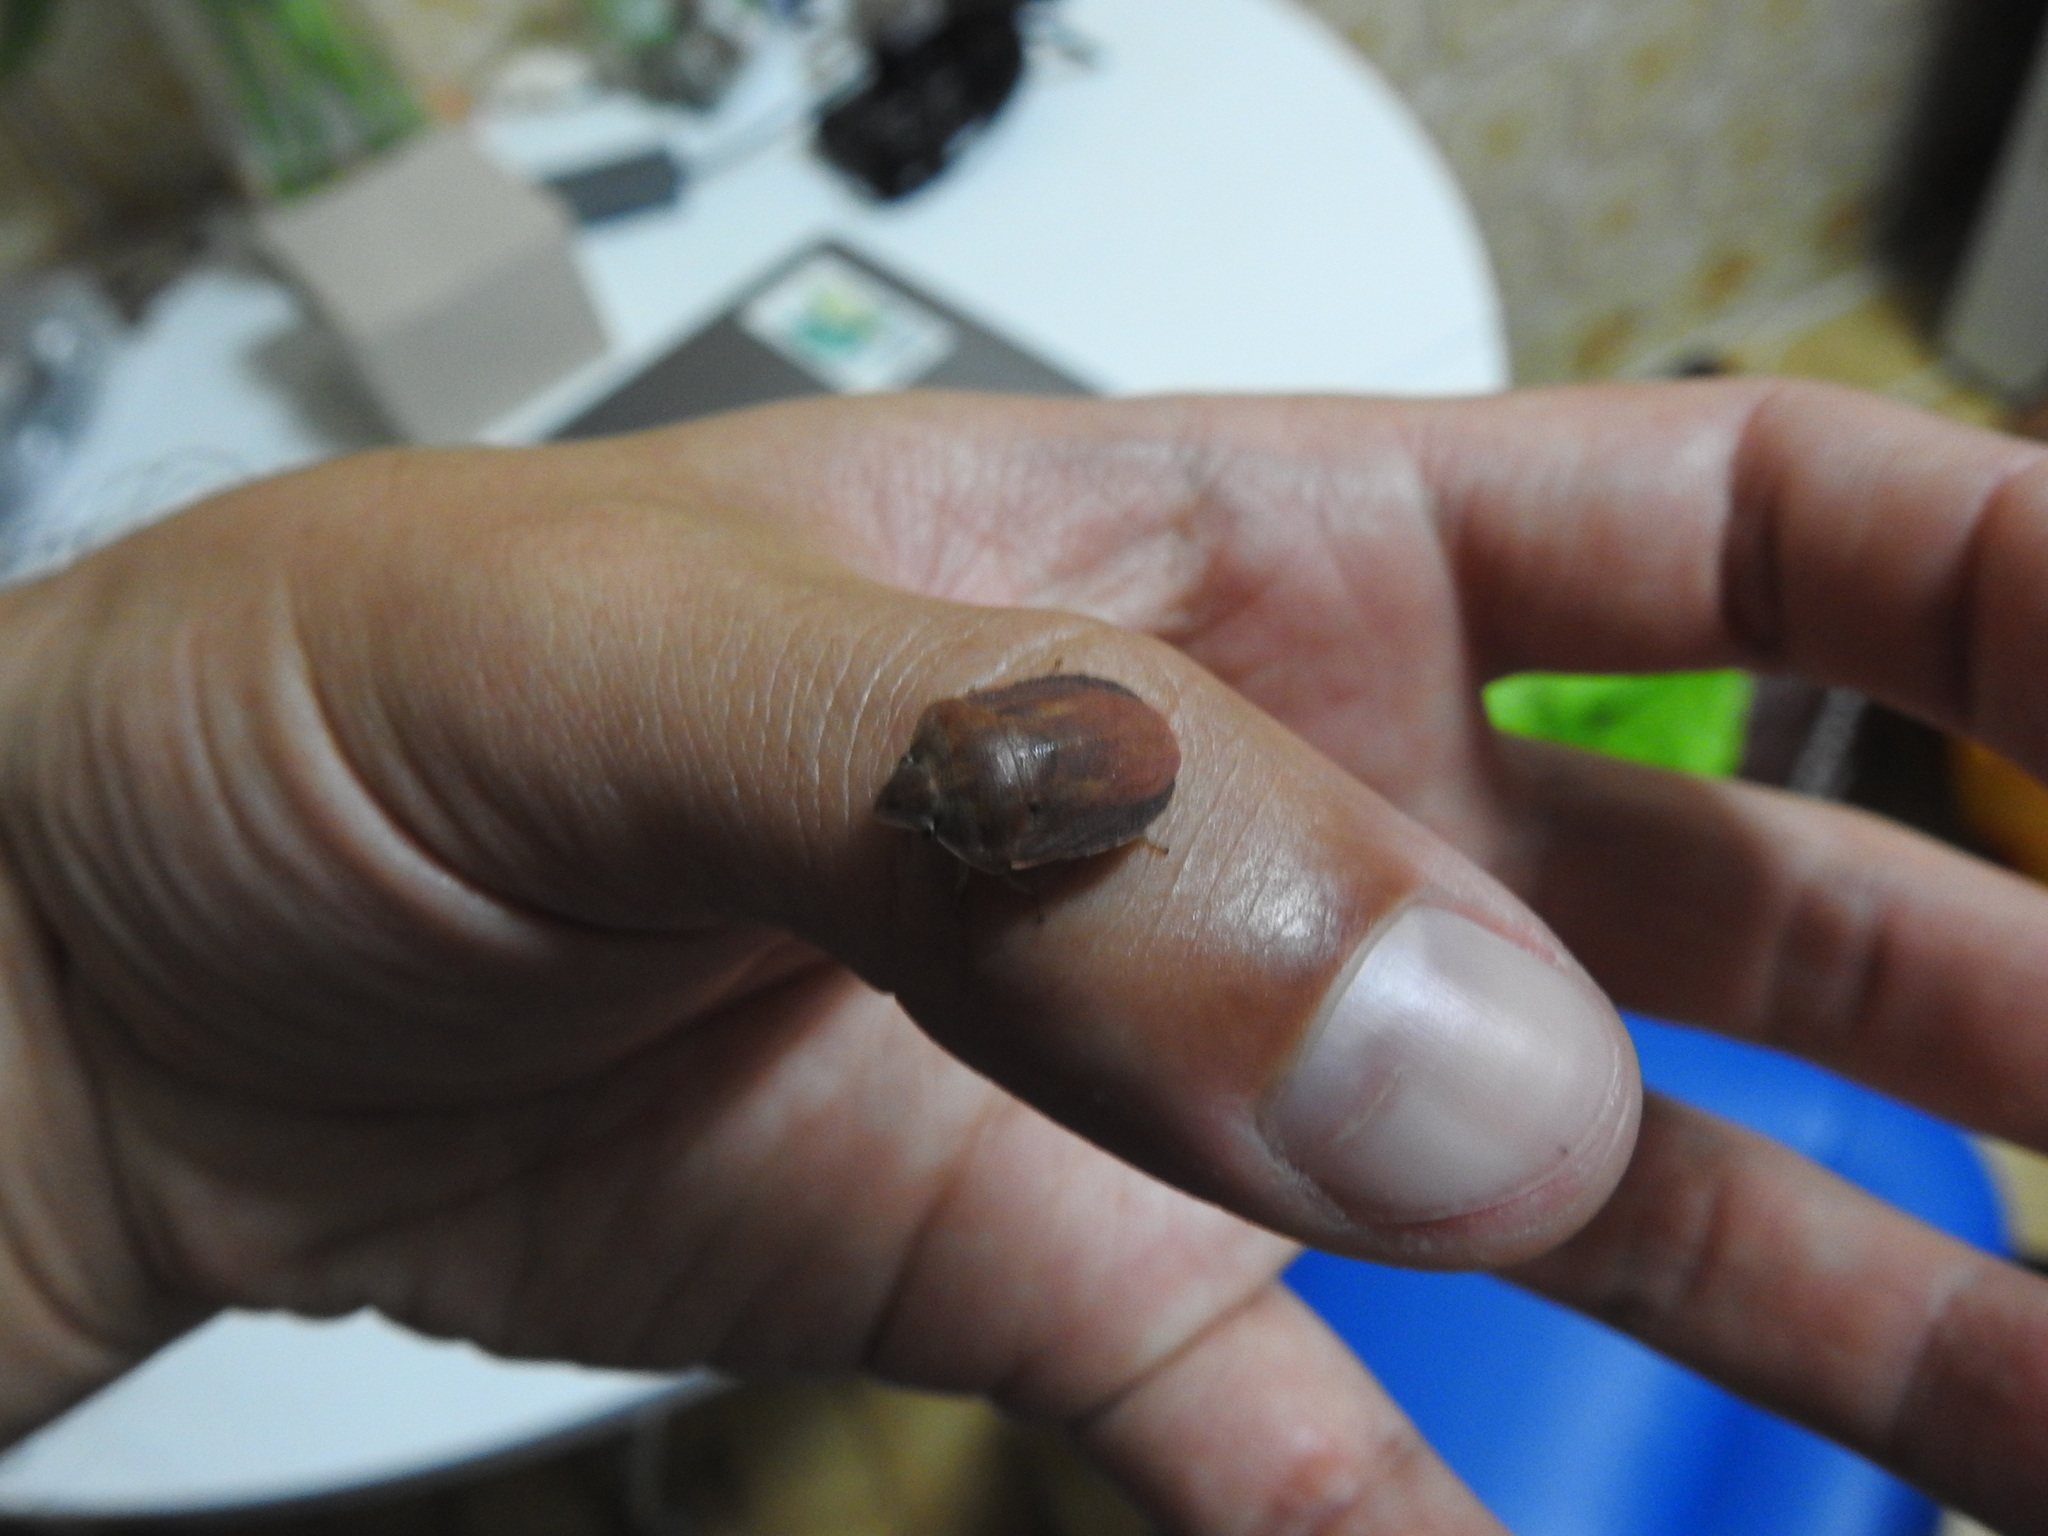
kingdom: Animalia
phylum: Arthropoda
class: Insecta
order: Hemiptera
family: Scutelleridae
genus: Eurygaster
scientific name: Eurygaster austriaca
